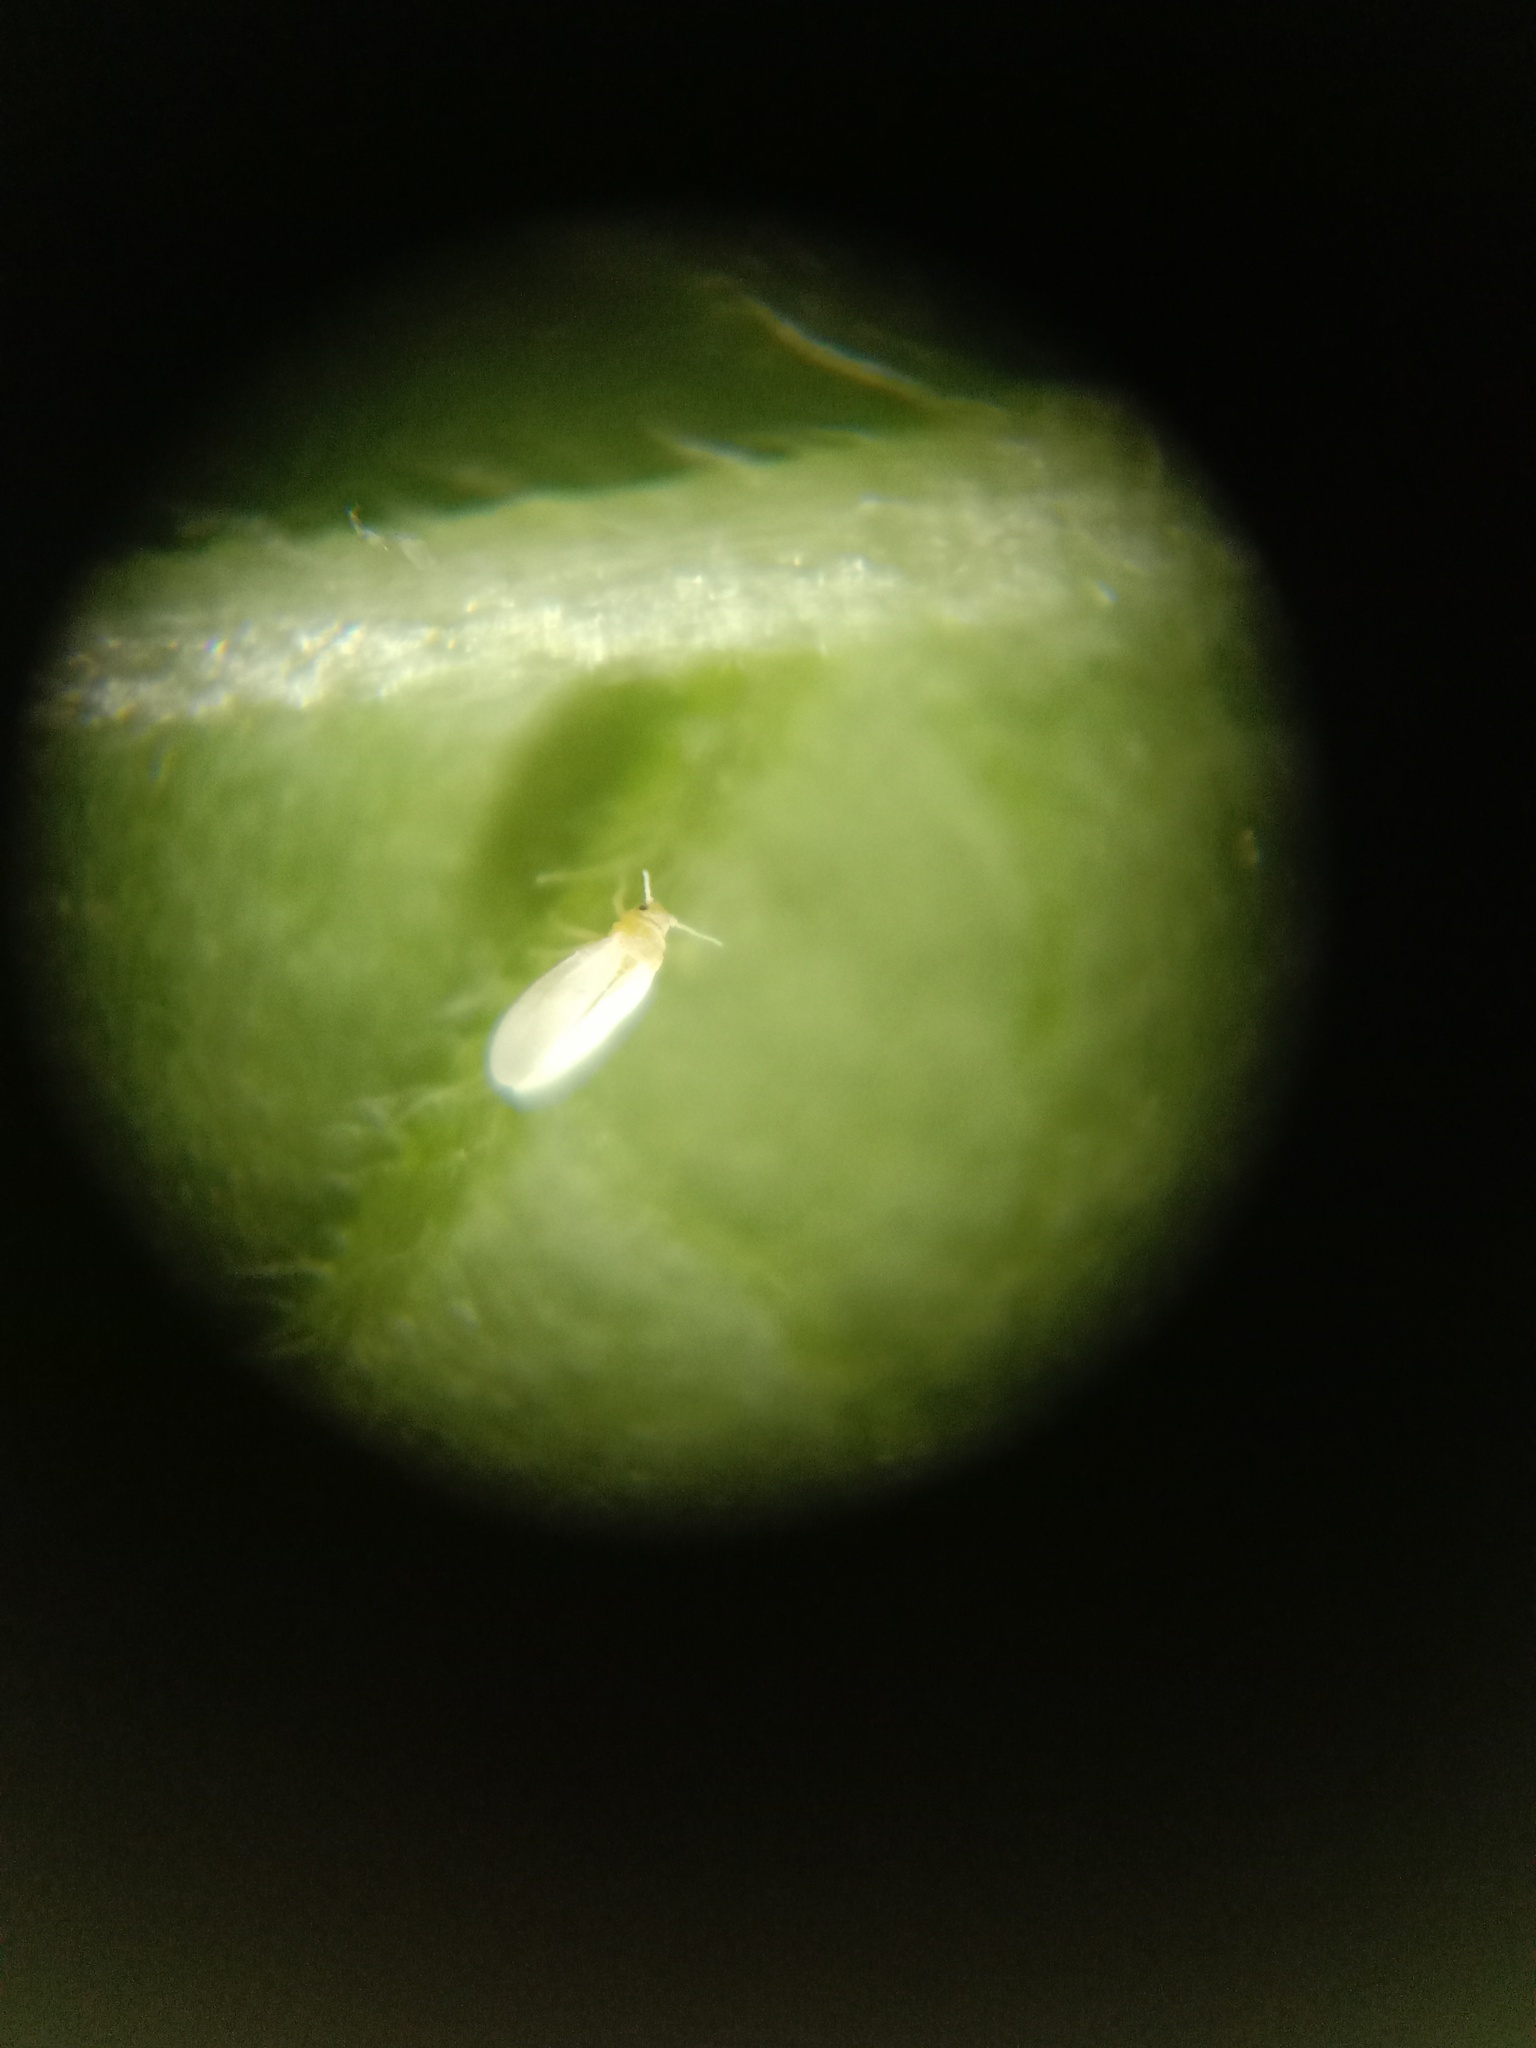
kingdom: Animalia
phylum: Arthropoda
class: Insecta
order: Hemiptera
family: Aleyrodidae
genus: Bemisia
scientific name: Bemisia tabaci
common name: Sweetpotato whitefly
